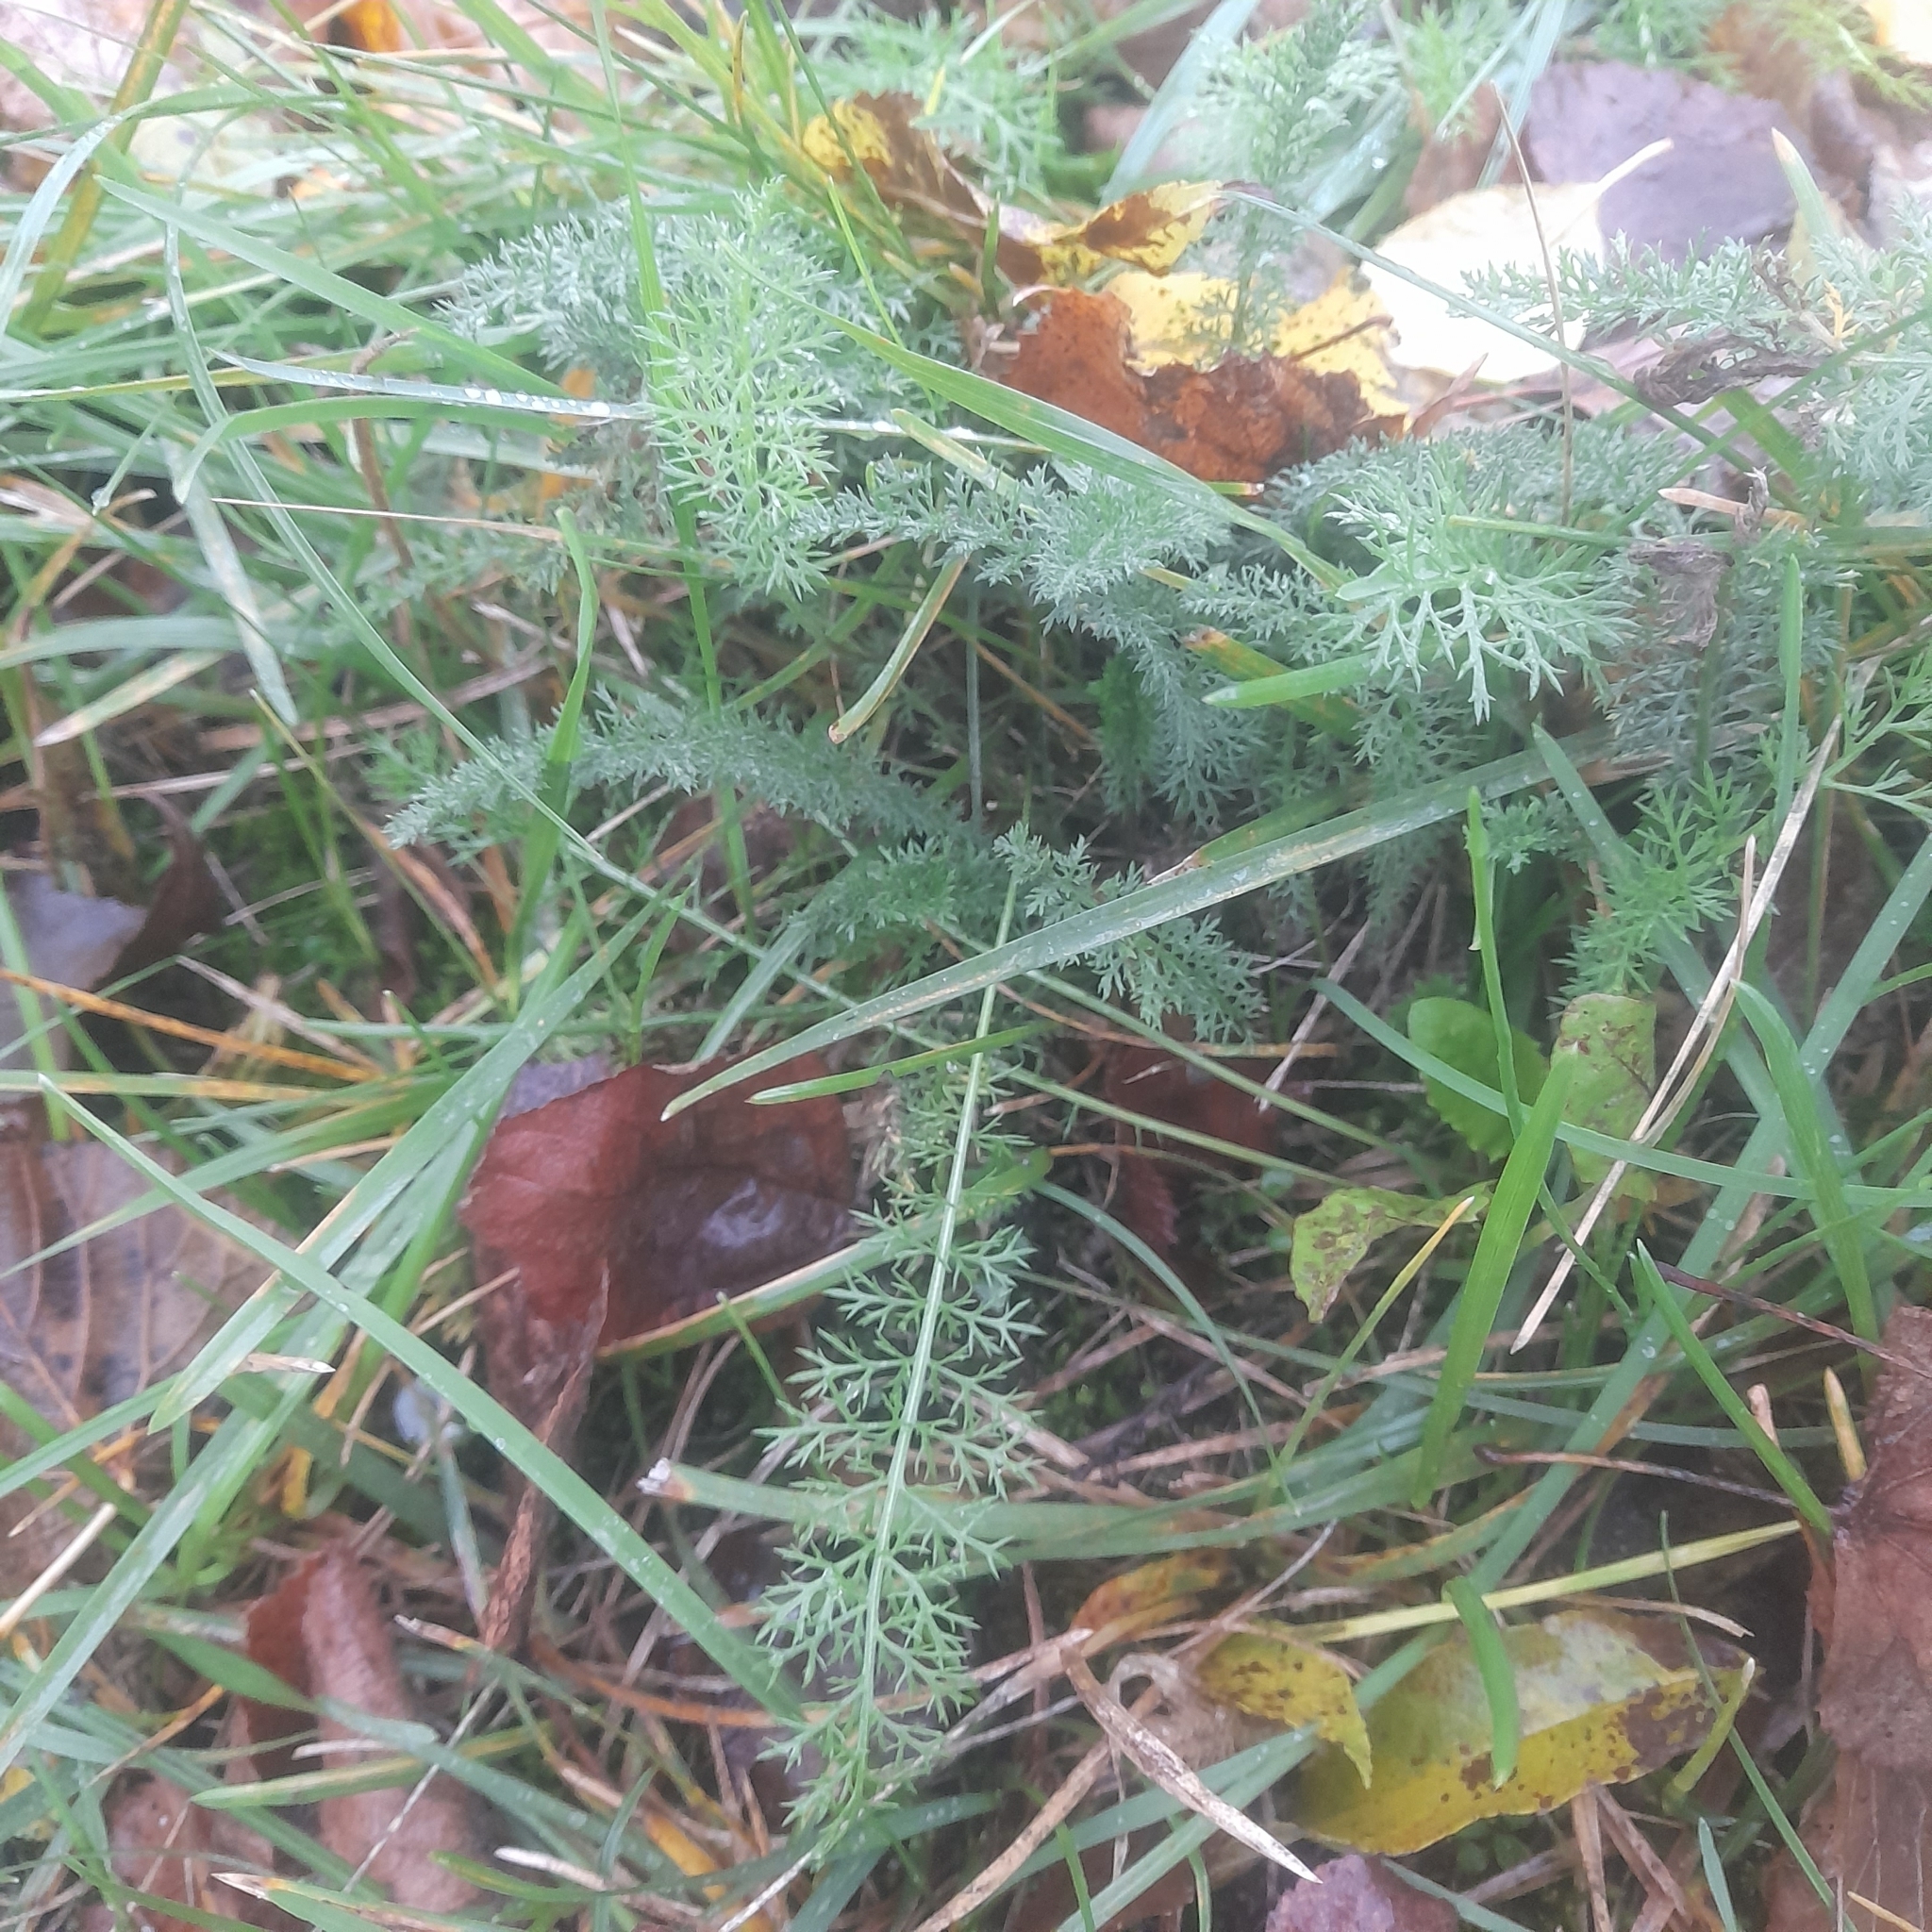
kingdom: Plantae
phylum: Tracheophyta
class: Magnoliopsida
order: Asterales
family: Asteraceae
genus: Achillea
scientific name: Achillea millefolium
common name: Yarrow
